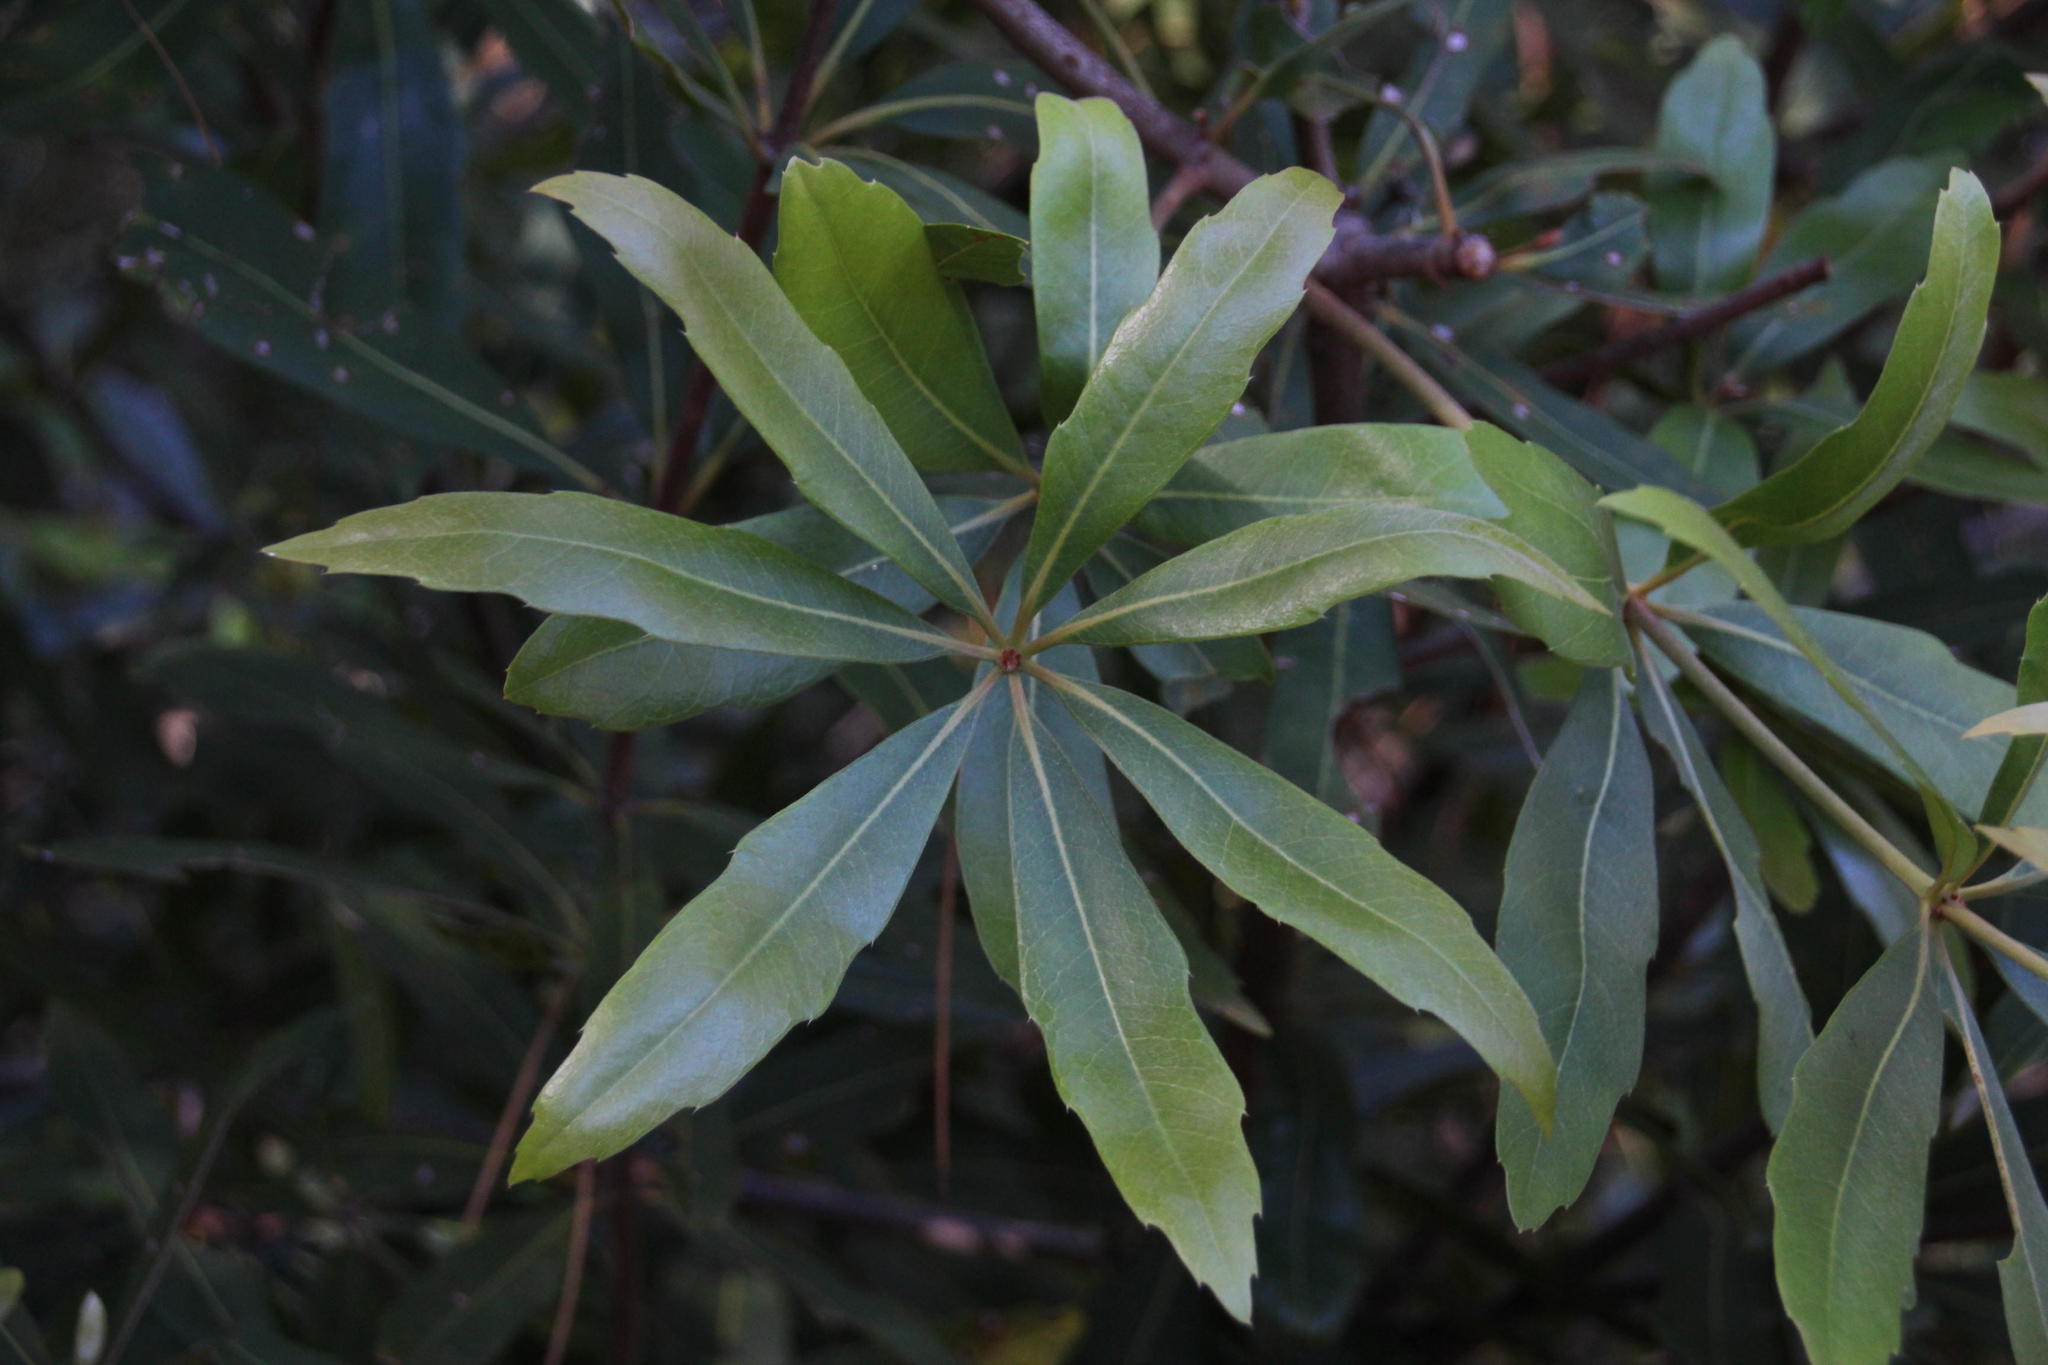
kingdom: Plantae
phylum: Tracheophyta
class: Magnoliopsida
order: Proteales
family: Proteaceae
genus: Brabejum
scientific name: Brabejum stellatifolium
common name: Wild almond
